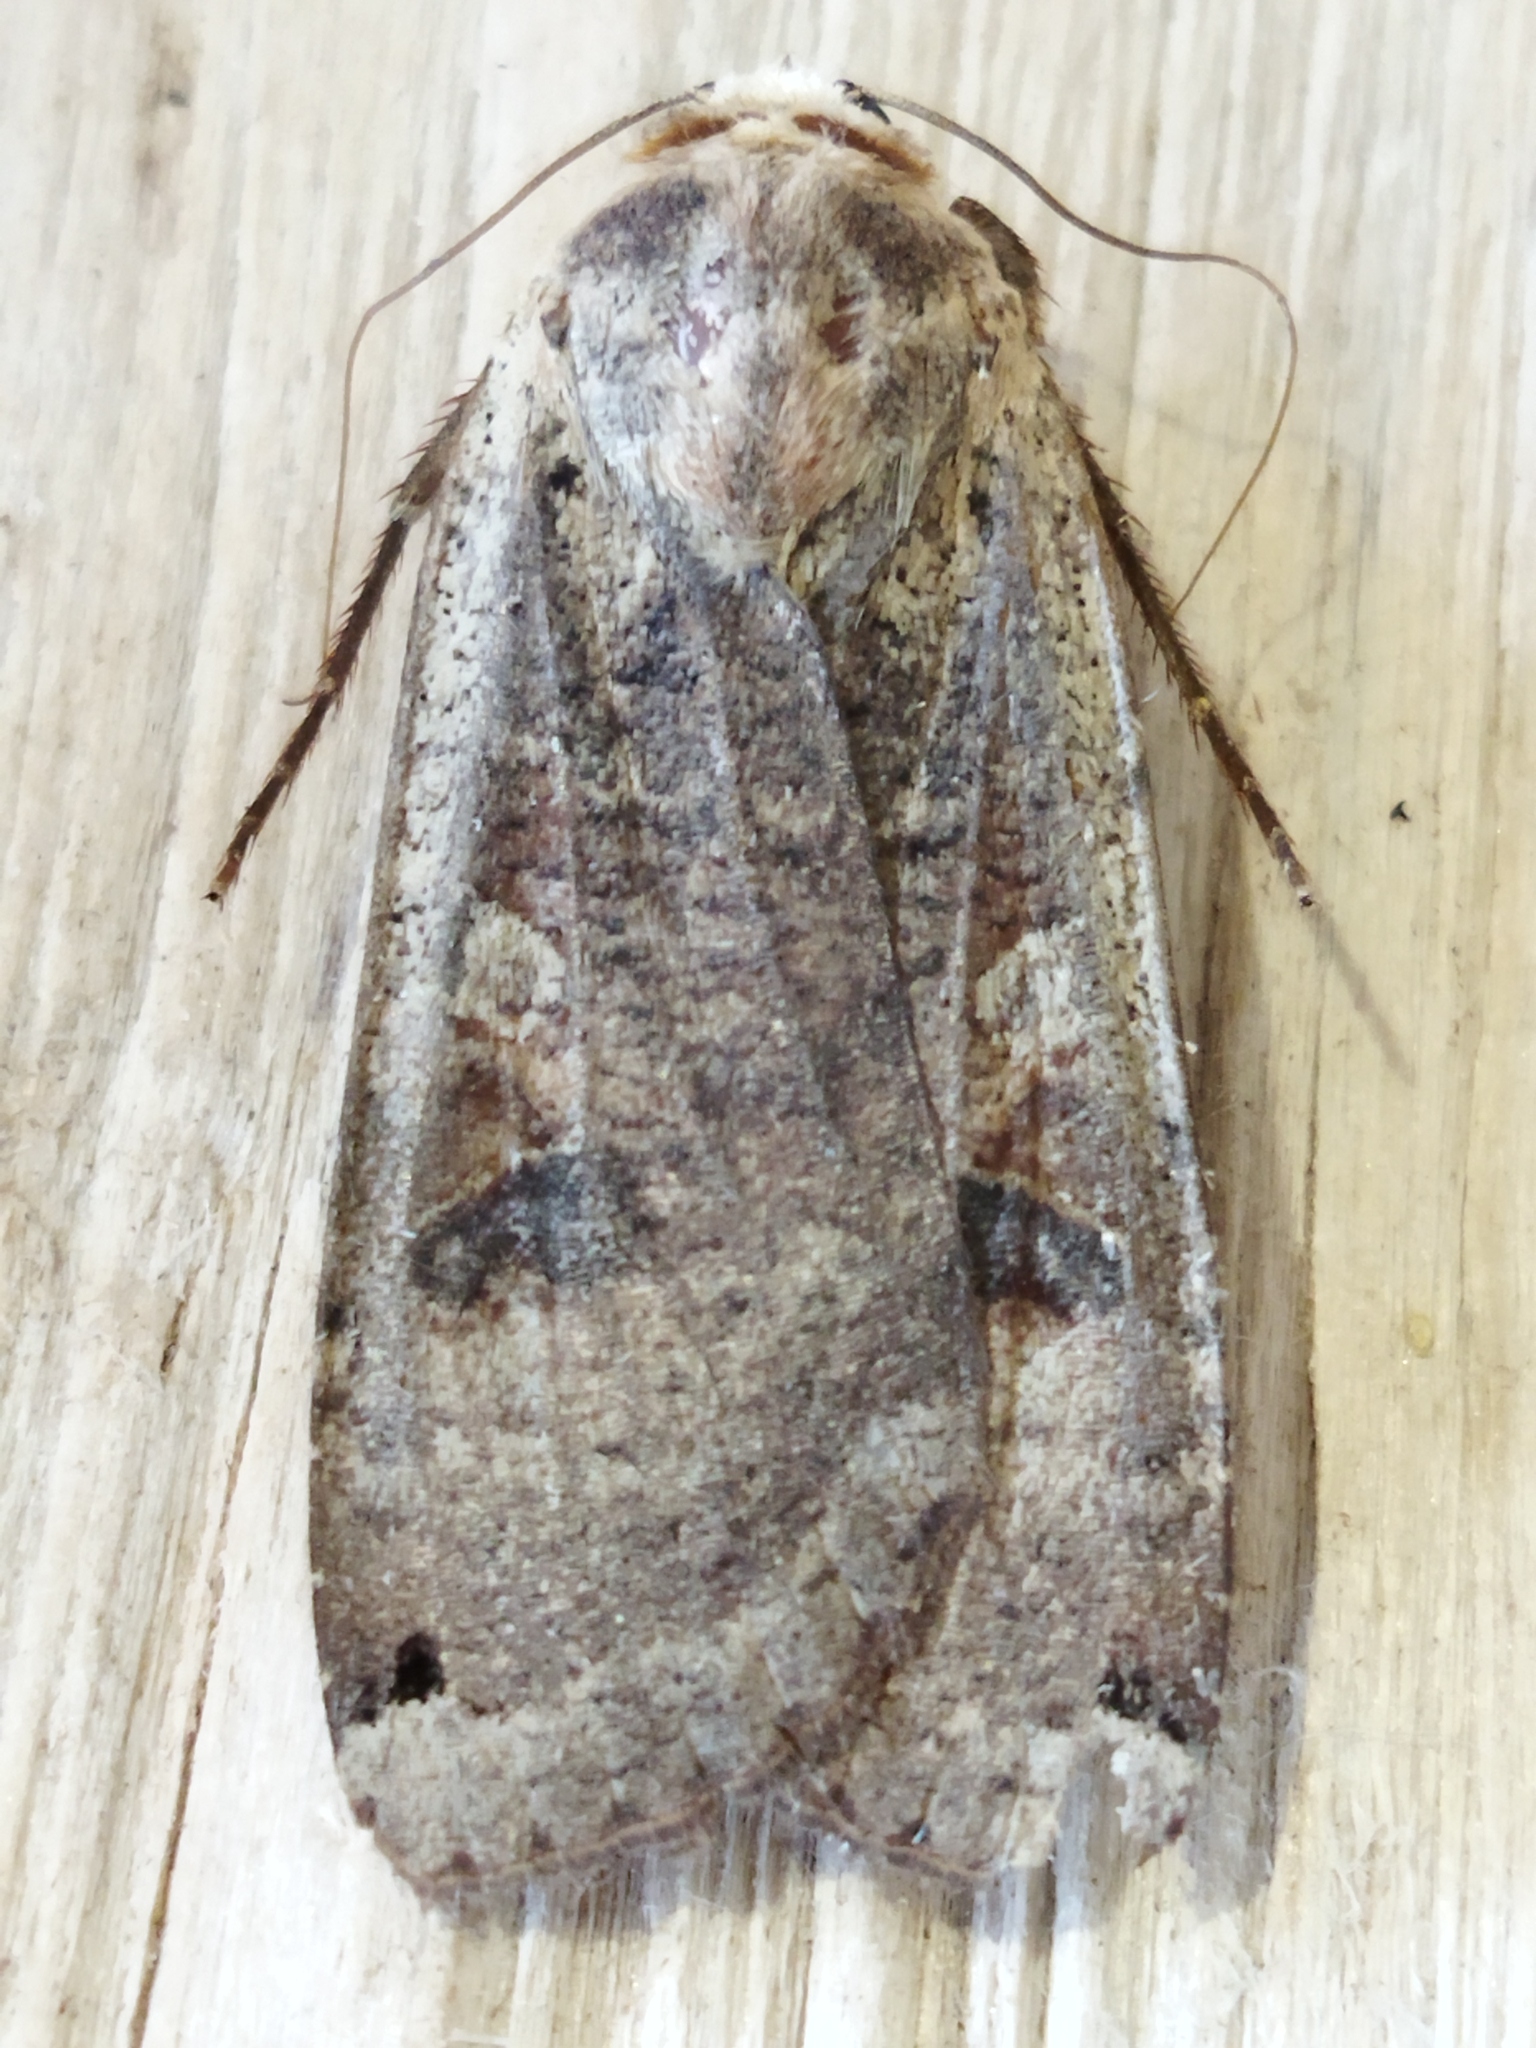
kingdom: Animalia
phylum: Arthropoda
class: Insecta
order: Lepidoptera
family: Noctuidae
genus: Noctua
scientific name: Noctua pronuba
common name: Large yellow underwing
